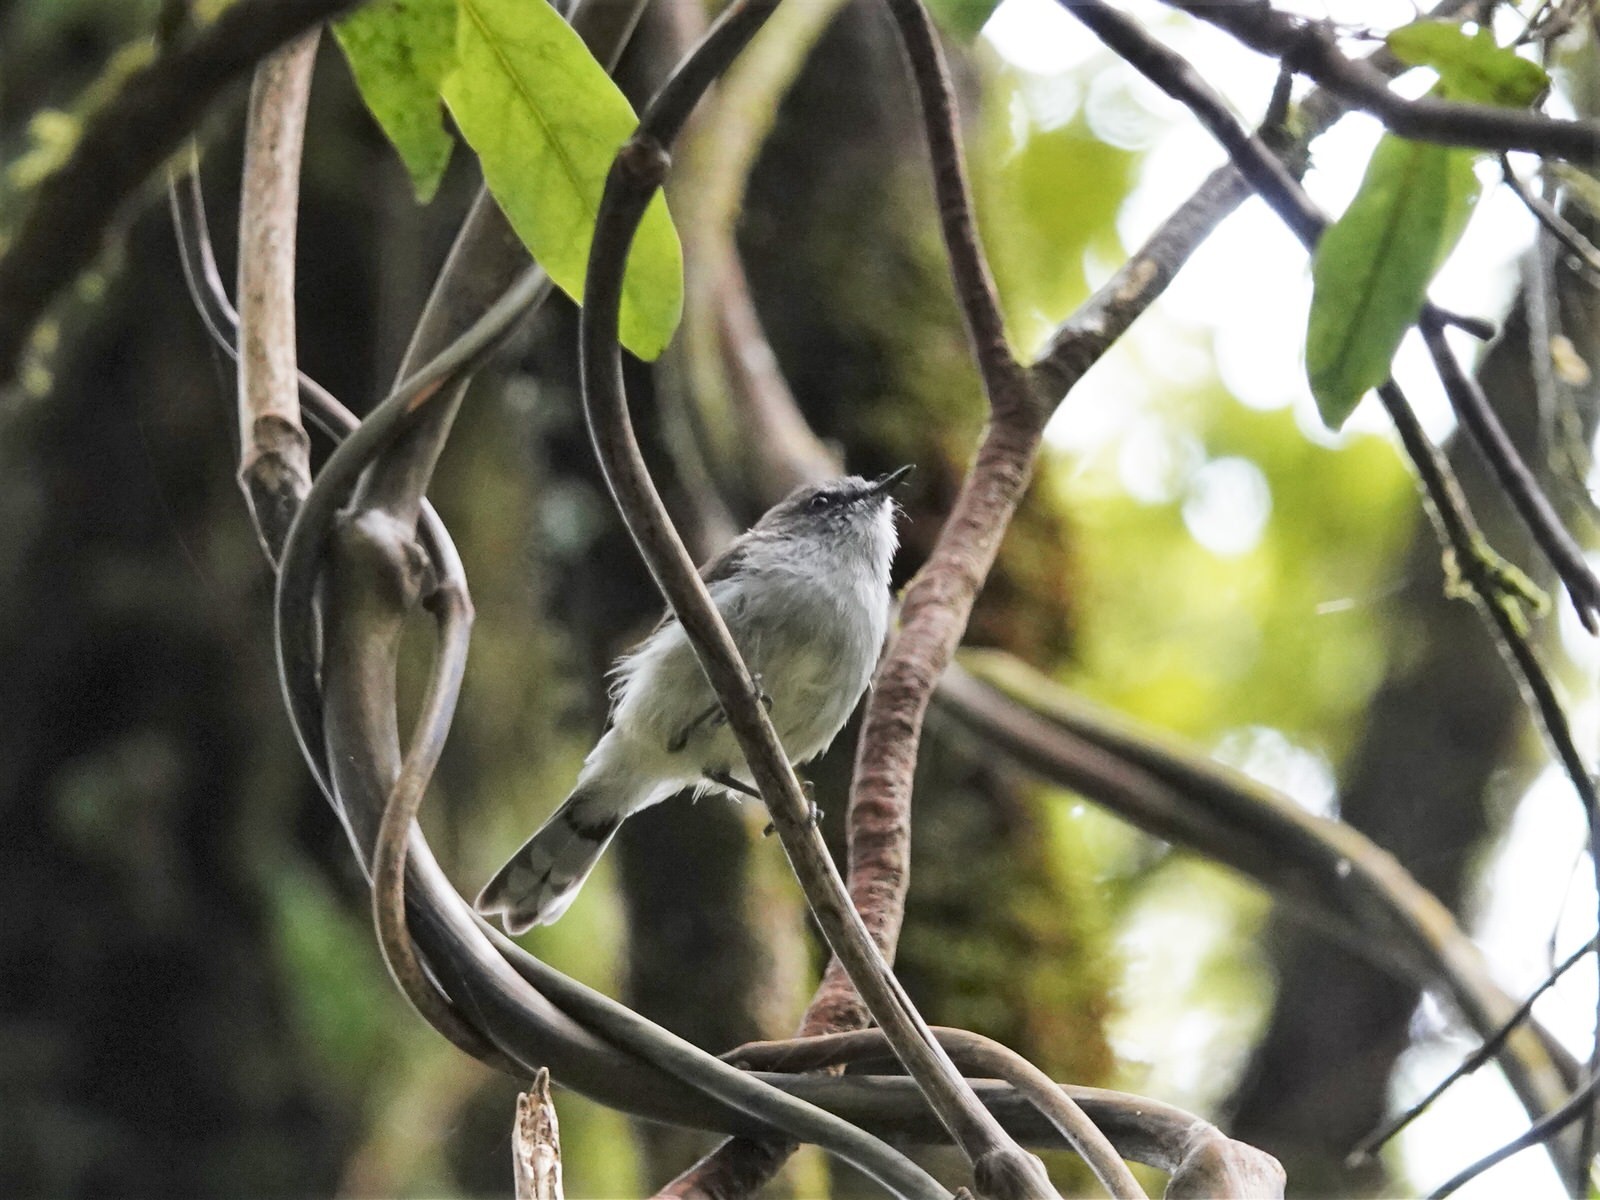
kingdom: Animalia
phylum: Chordata
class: Aves
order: Passeriformes
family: Acanthizidae
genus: Gerygone
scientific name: Gerygone igata
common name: Grey gerygone
